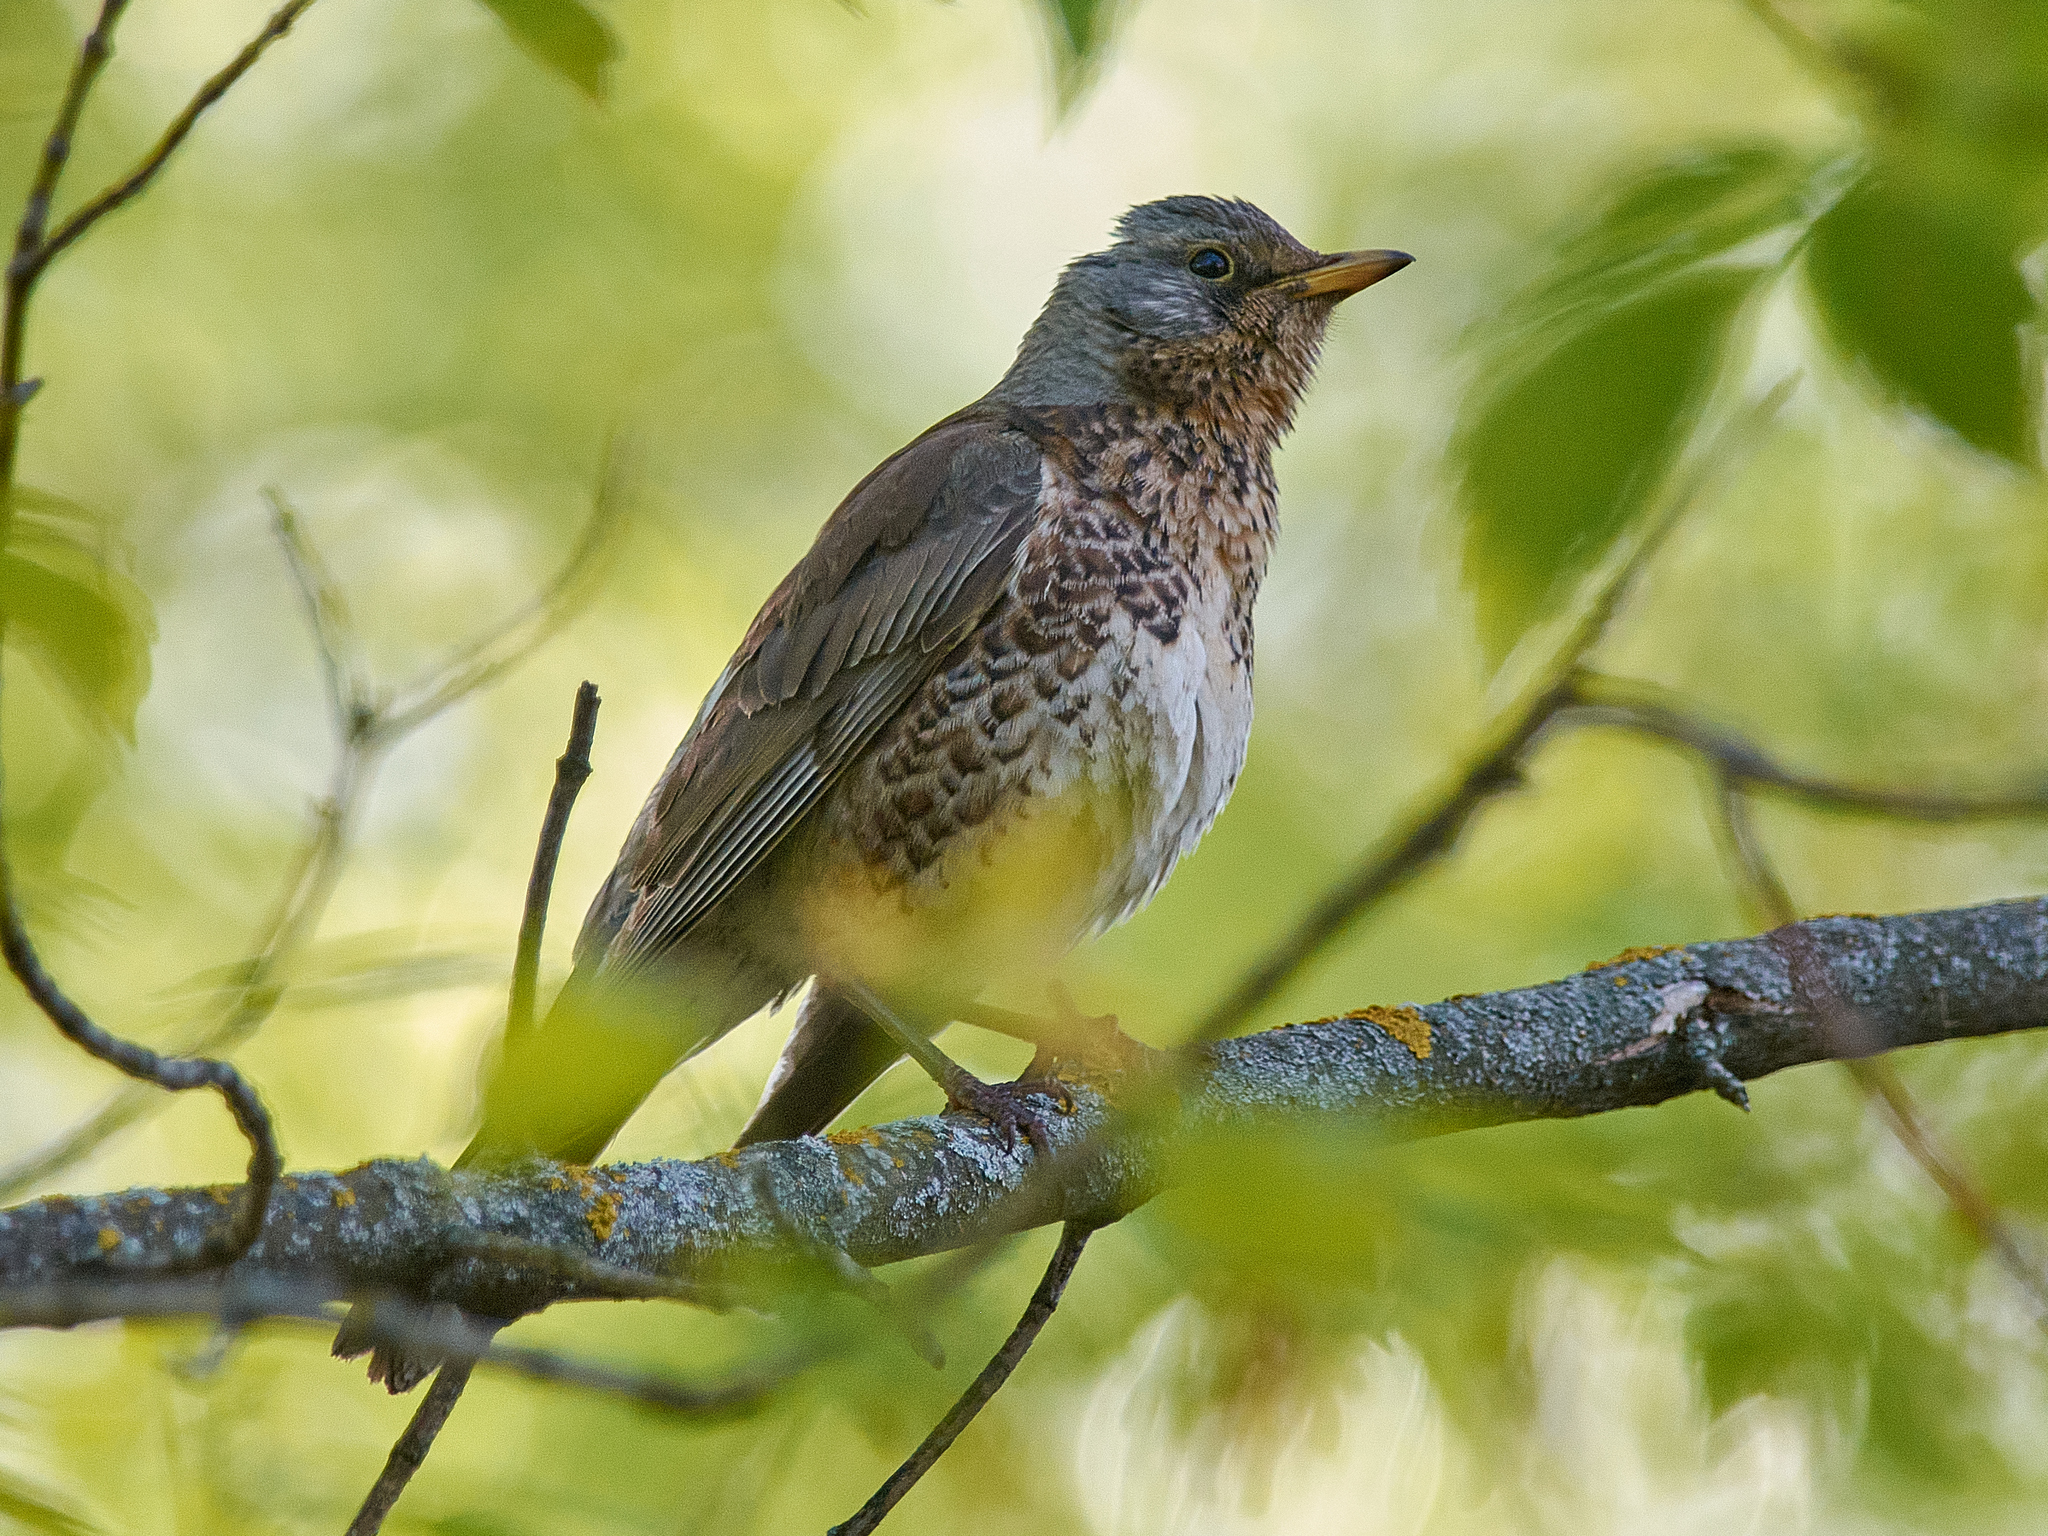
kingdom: Animalia
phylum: Chordata
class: Aves
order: Passeriformes
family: Turdidae
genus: Turdus
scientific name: Turdus pilaris
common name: Fieldfare
